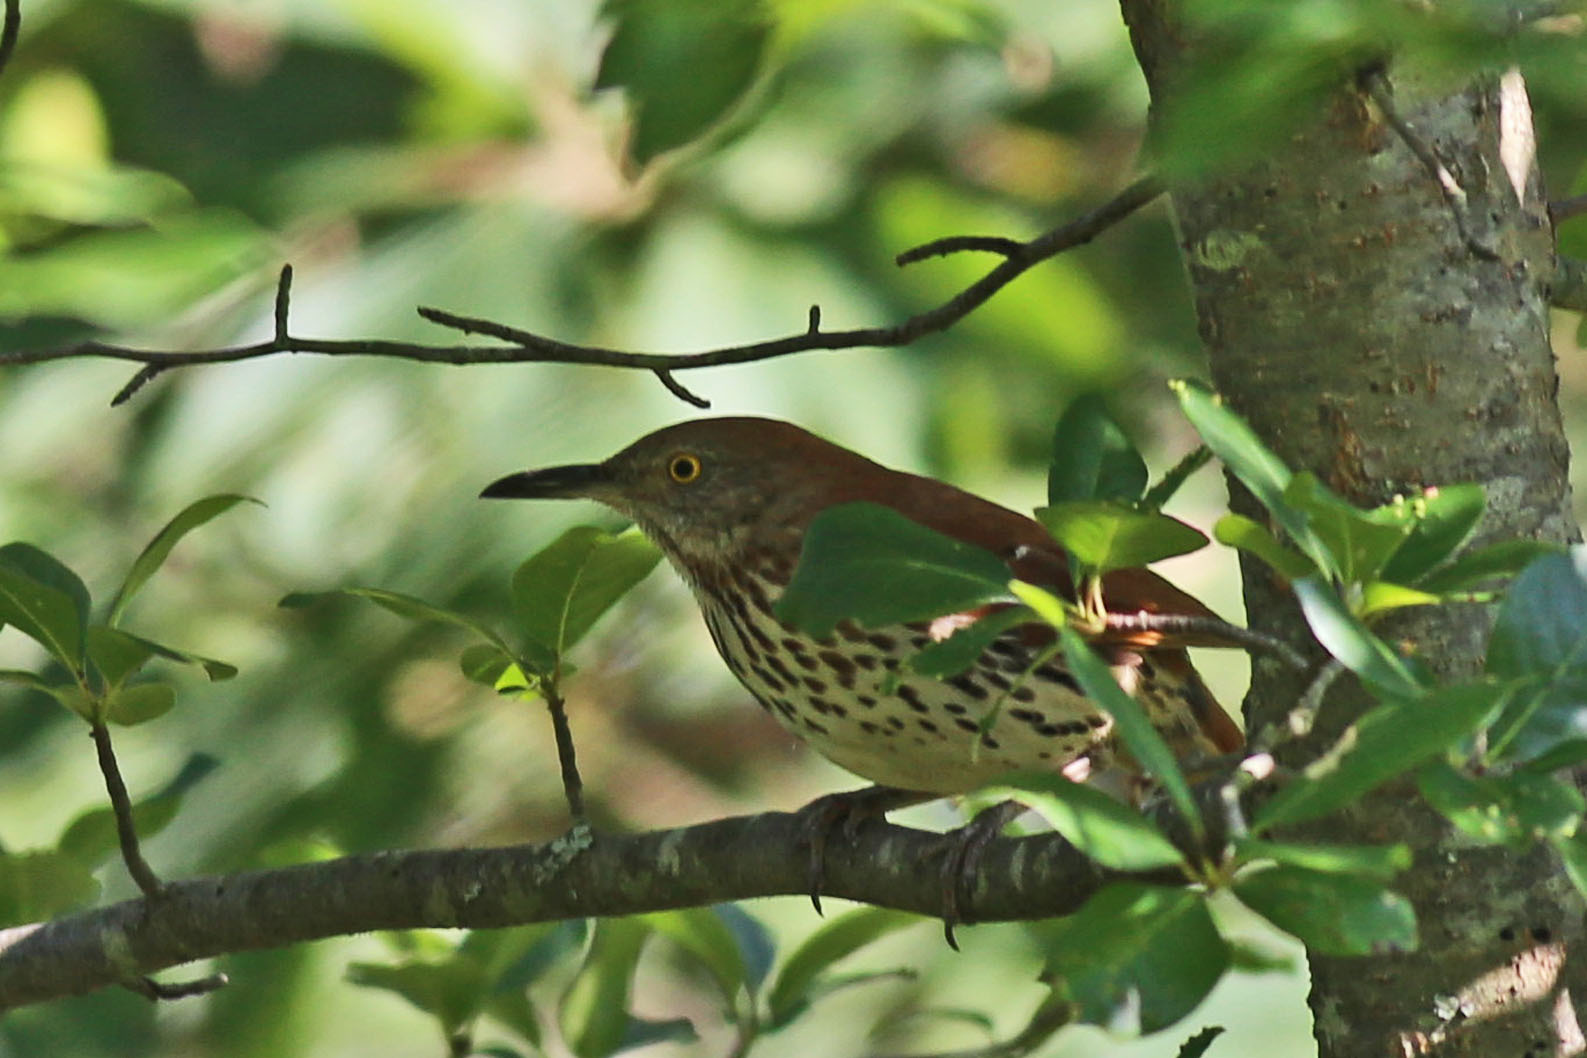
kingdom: Animalia
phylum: Chordata
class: Aves
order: Passeriformes
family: Mimidae
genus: Toxostoma
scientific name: Toxostoma rufum
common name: Brown thrasher
